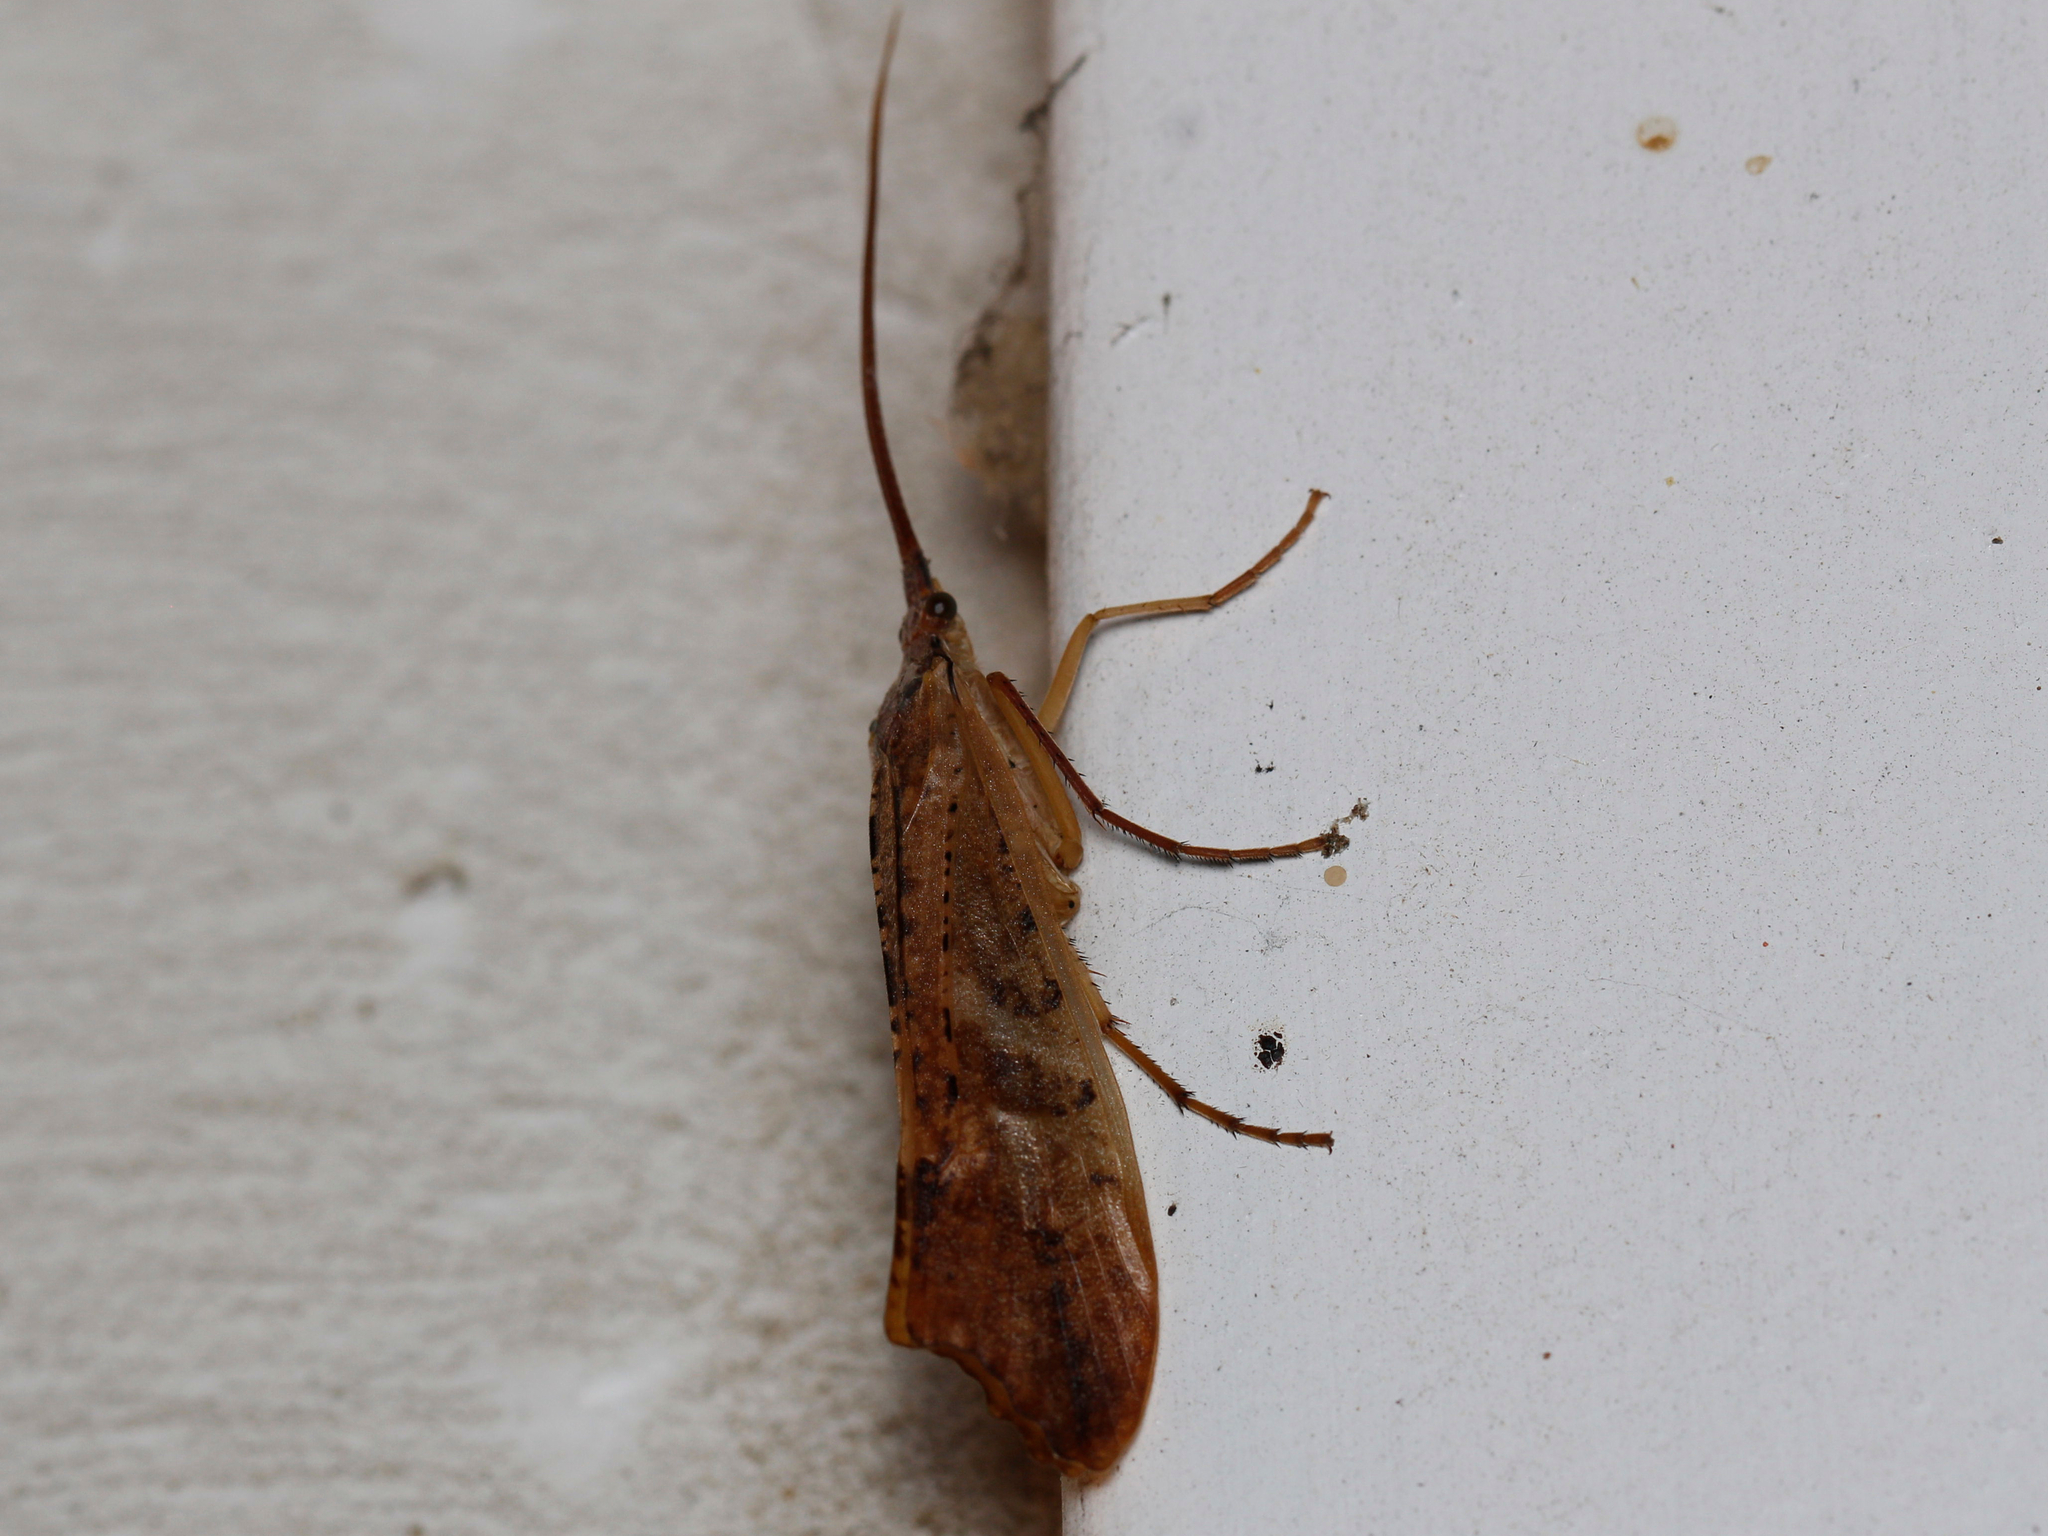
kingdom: Animalia
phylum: Arthropoda
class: Insecta
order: Trichoptera
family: Limnephilidae
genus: Nemotaulius
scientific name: Nemotaulius hostilis
